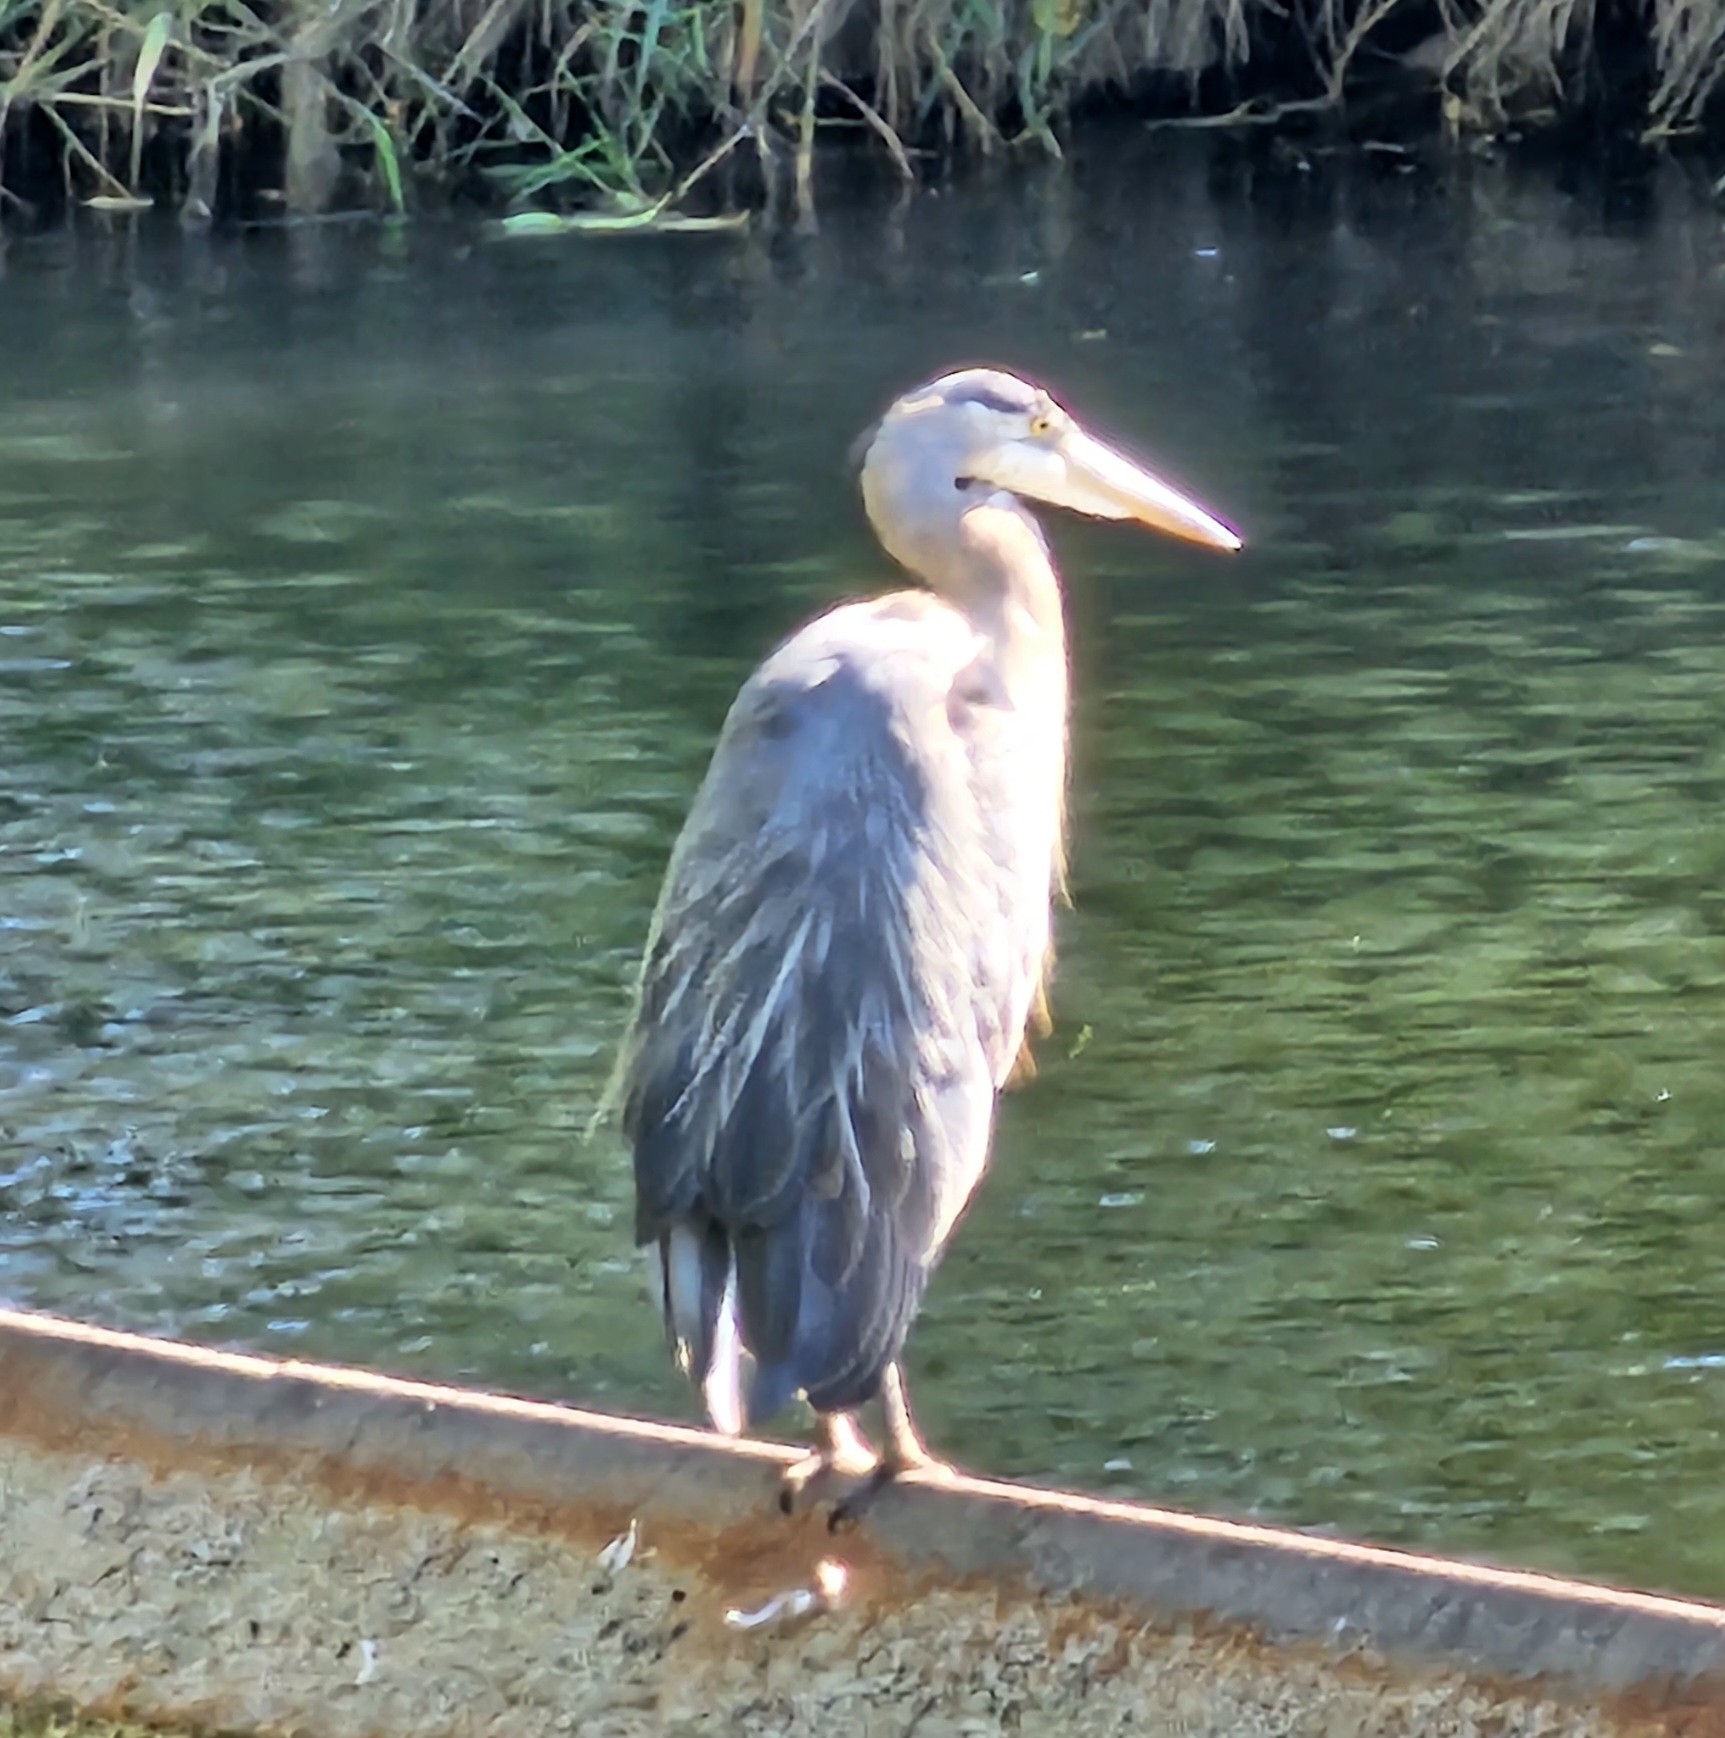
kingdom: Animalia
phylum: Chordata
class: Aves
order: Pelecaniformes
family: Ardeidae
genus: Ardea
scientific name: Ardea herodias
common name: Great blue heron
